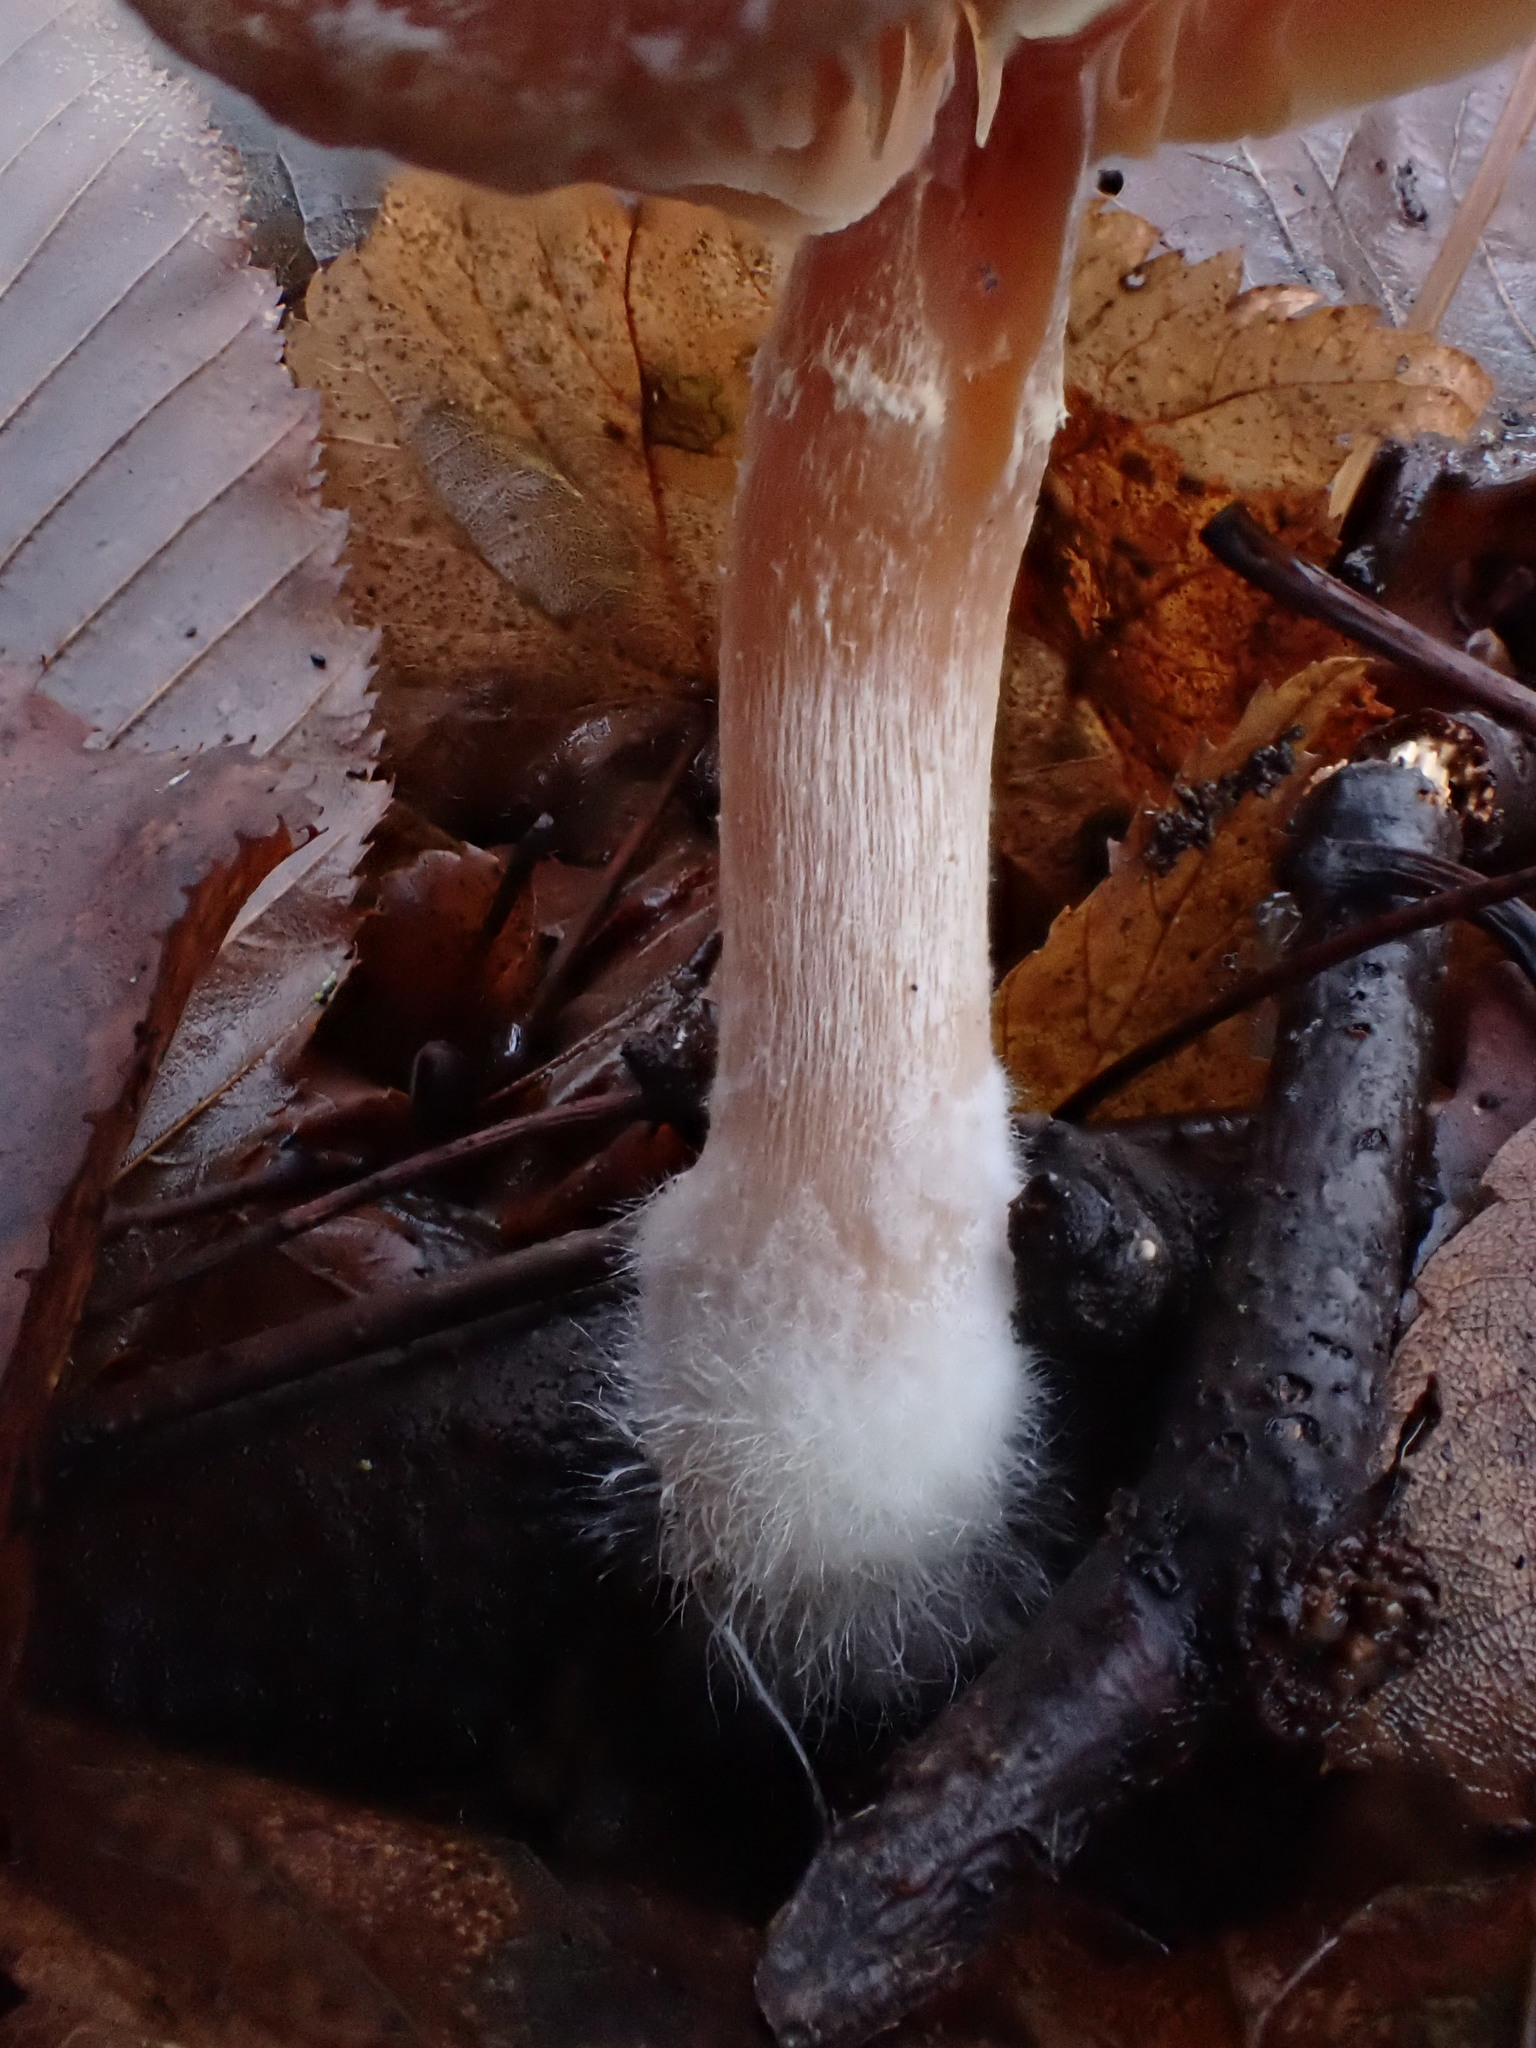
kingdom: Fungi
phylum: Basidiomycota
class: Agaricomycetes
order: Agaricales
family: Tubariaceae
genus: Tubaria
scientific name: Tubaria
